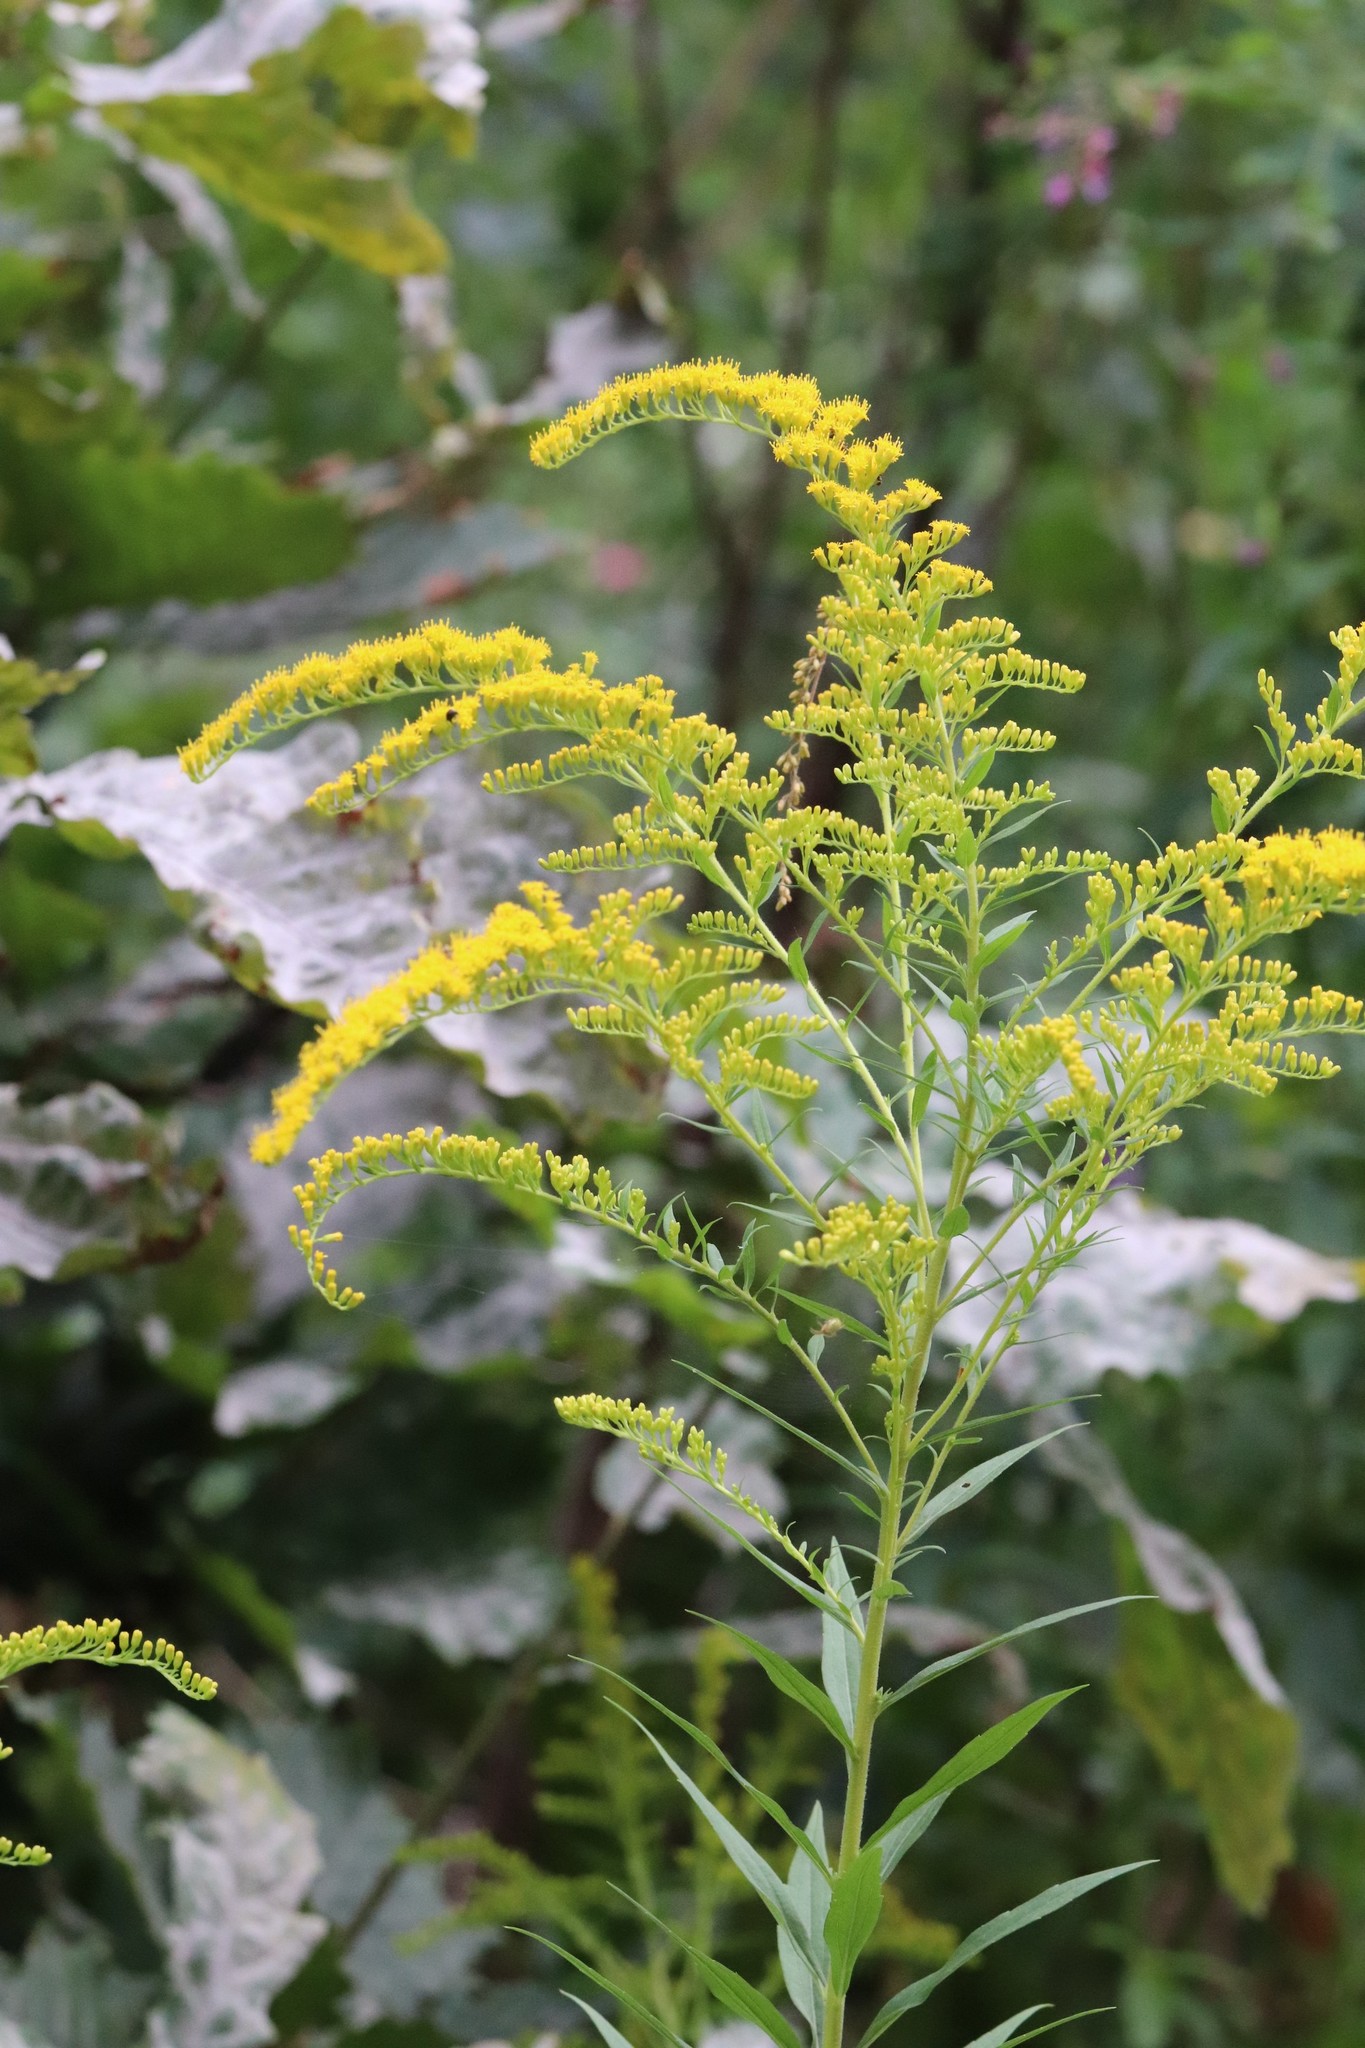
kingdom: Plantae
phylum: Tracheophyta
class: Magnoliopsida
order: Asterales
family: Asteraceae
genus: Solidago
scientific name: Solidago canadensis
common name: Canada goldenrod
